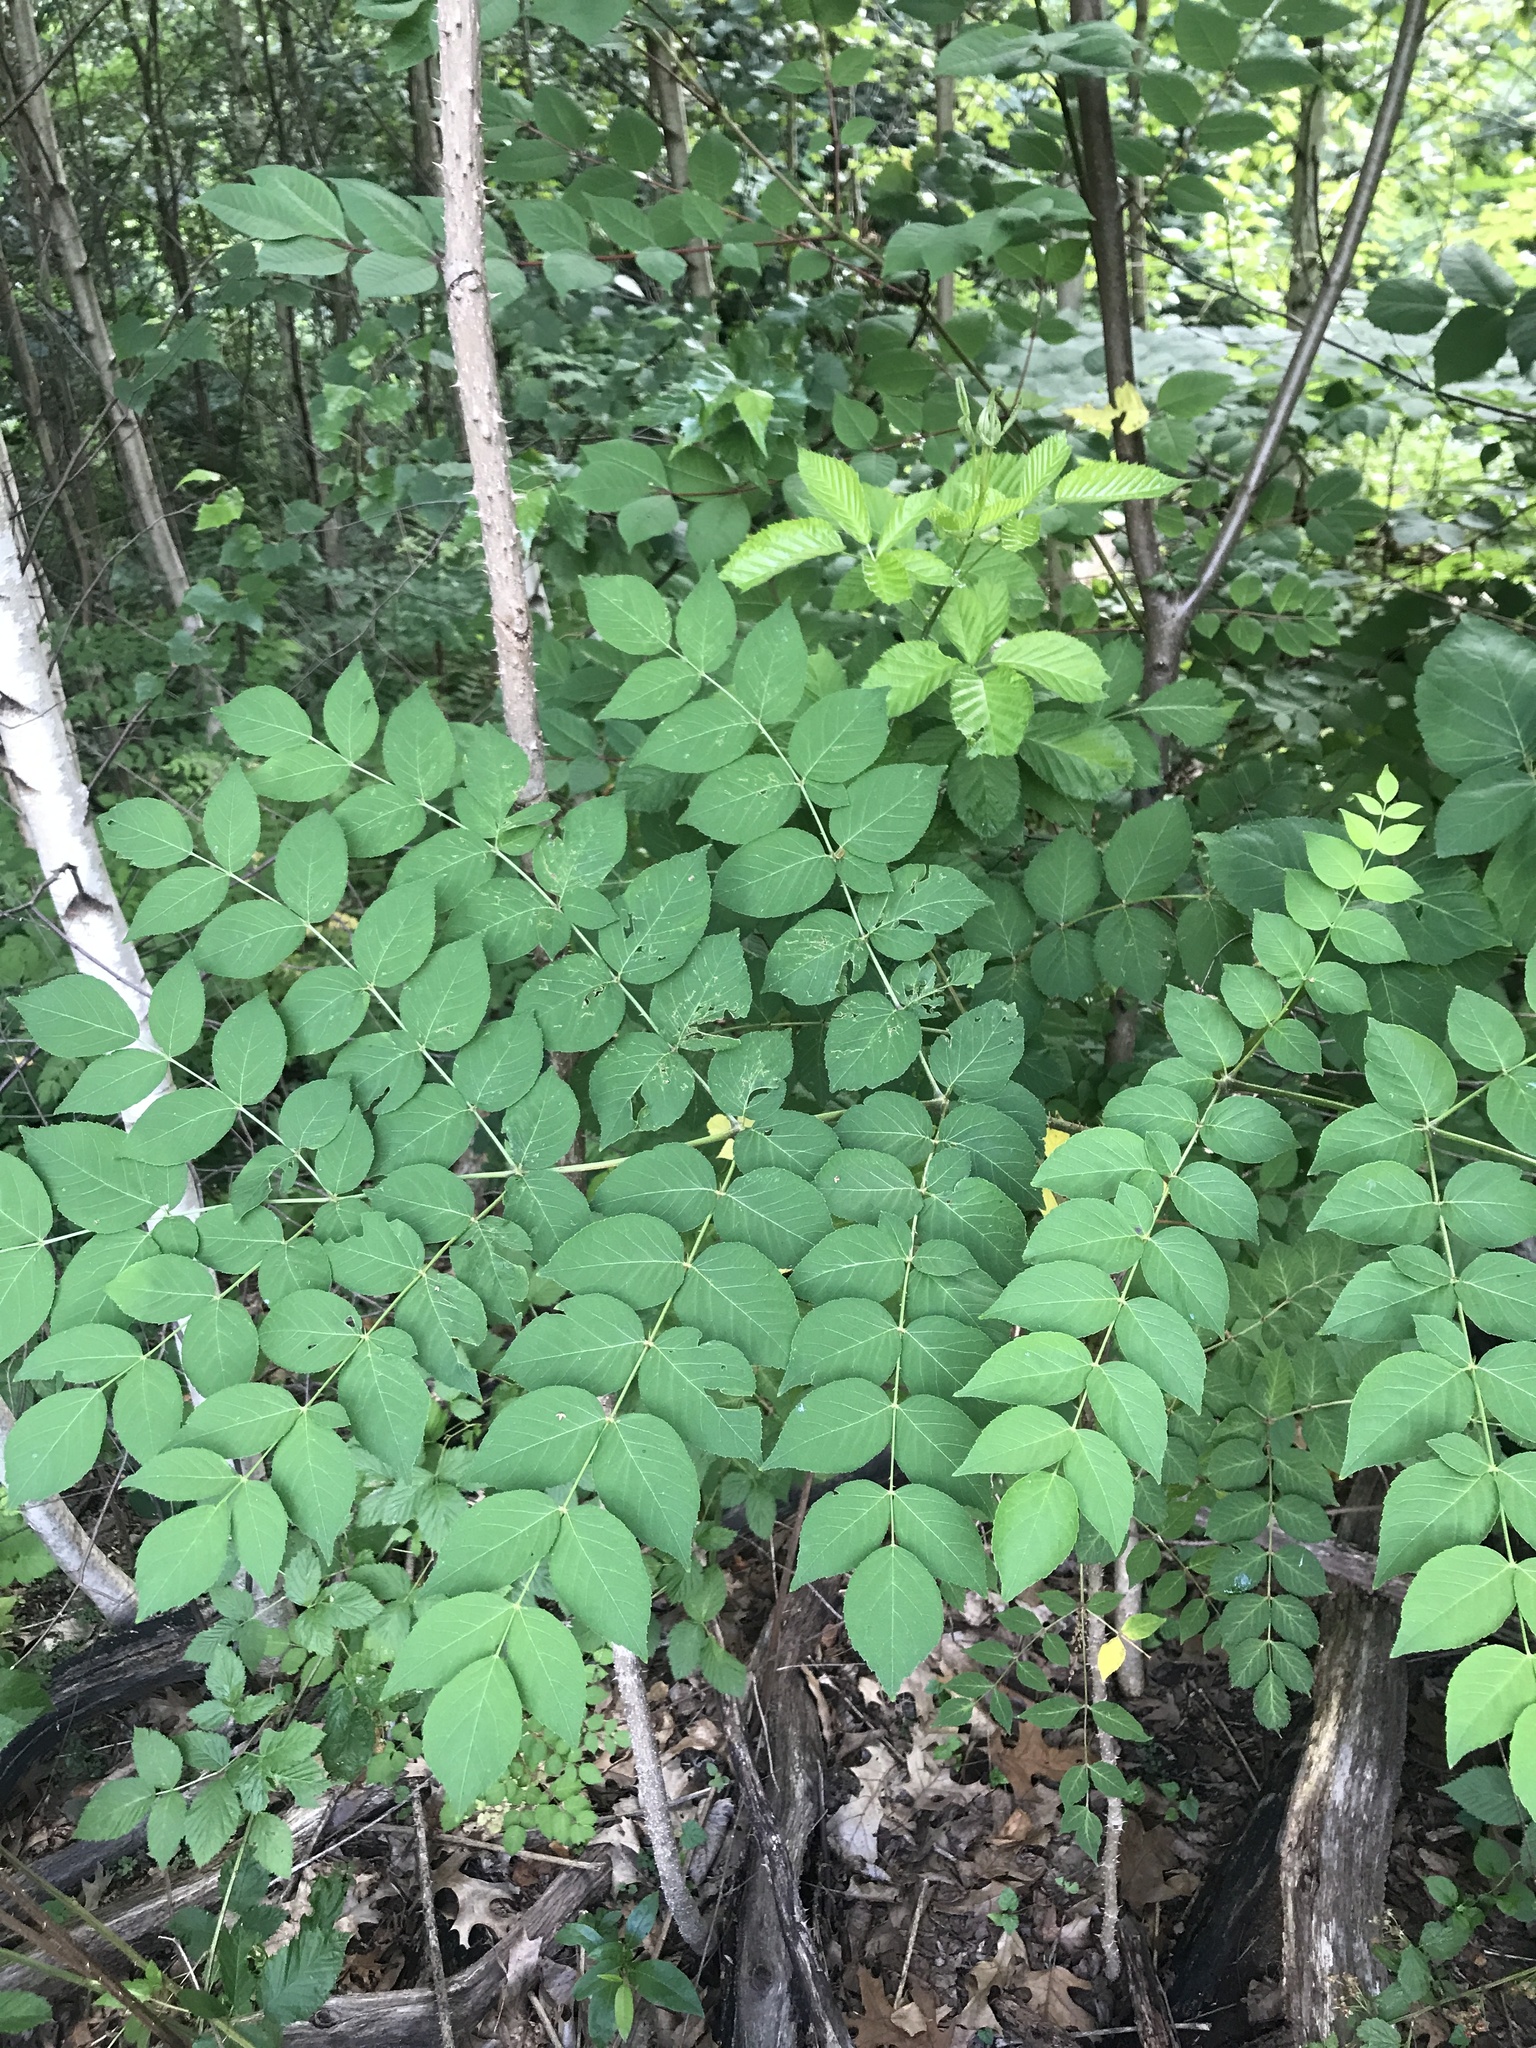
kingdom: Plantae
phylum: Tracheophyta
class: Magnoliopsida
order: Apiales
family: Araliaceae
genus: Aralia
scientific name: Aralia elata
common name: Japanese angelica-tree
